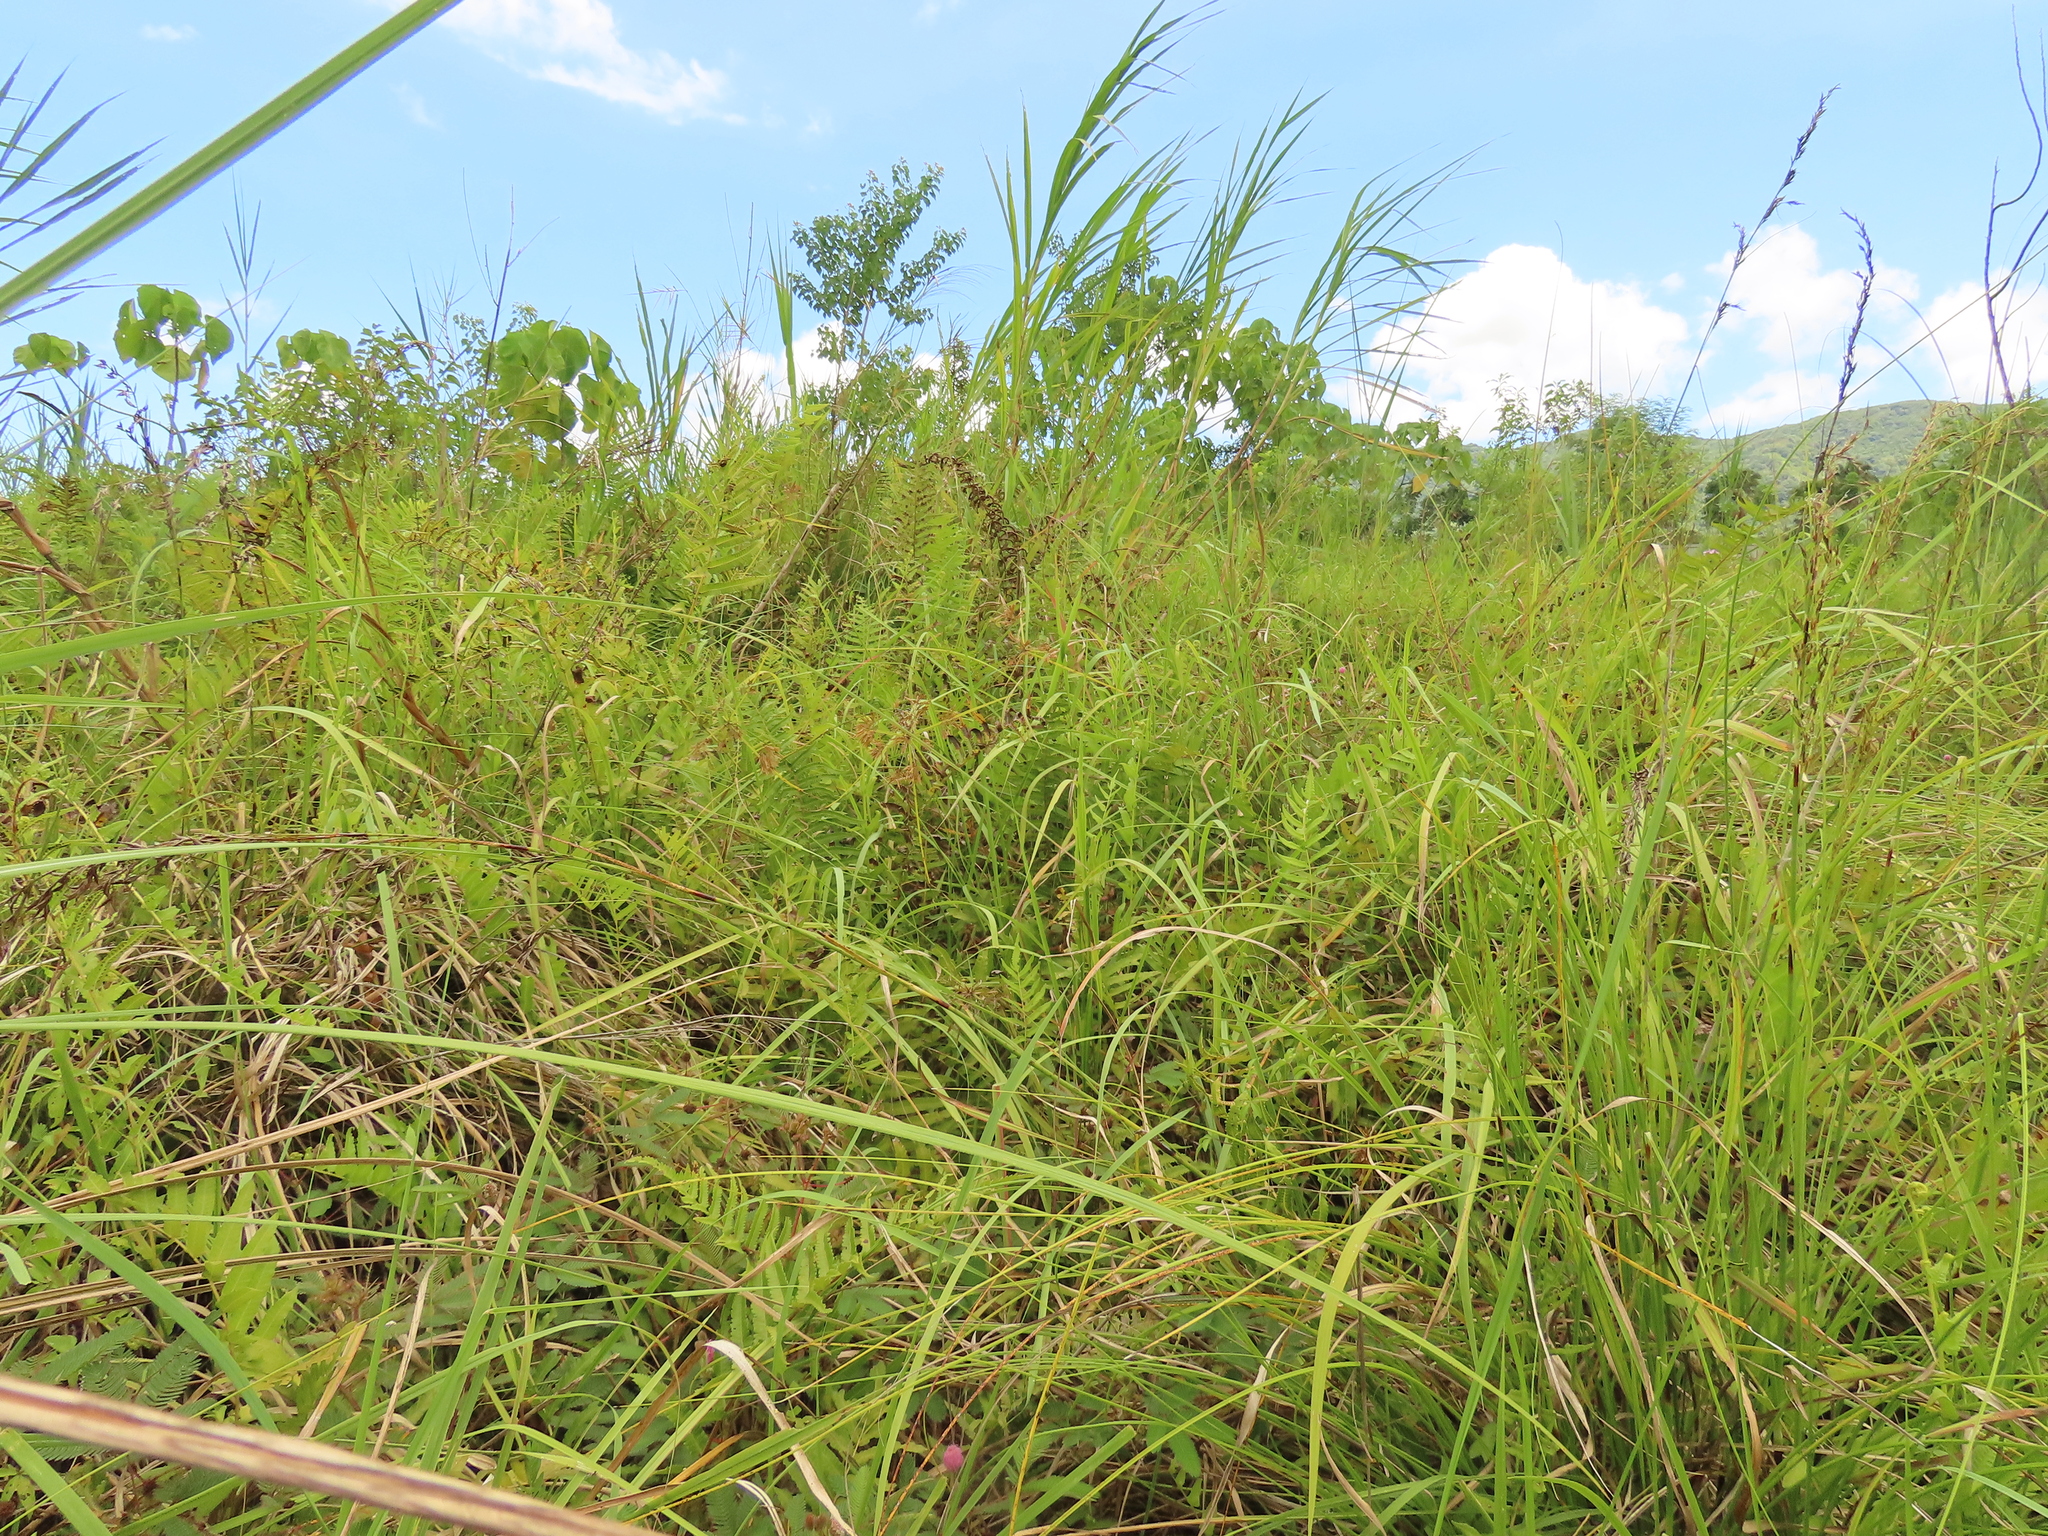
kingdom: Plantae
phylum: Tracheophyta
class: Liliopsida
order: Poales
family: Cyperaceae
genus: Schoenus
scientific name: Schoenus falcatus
